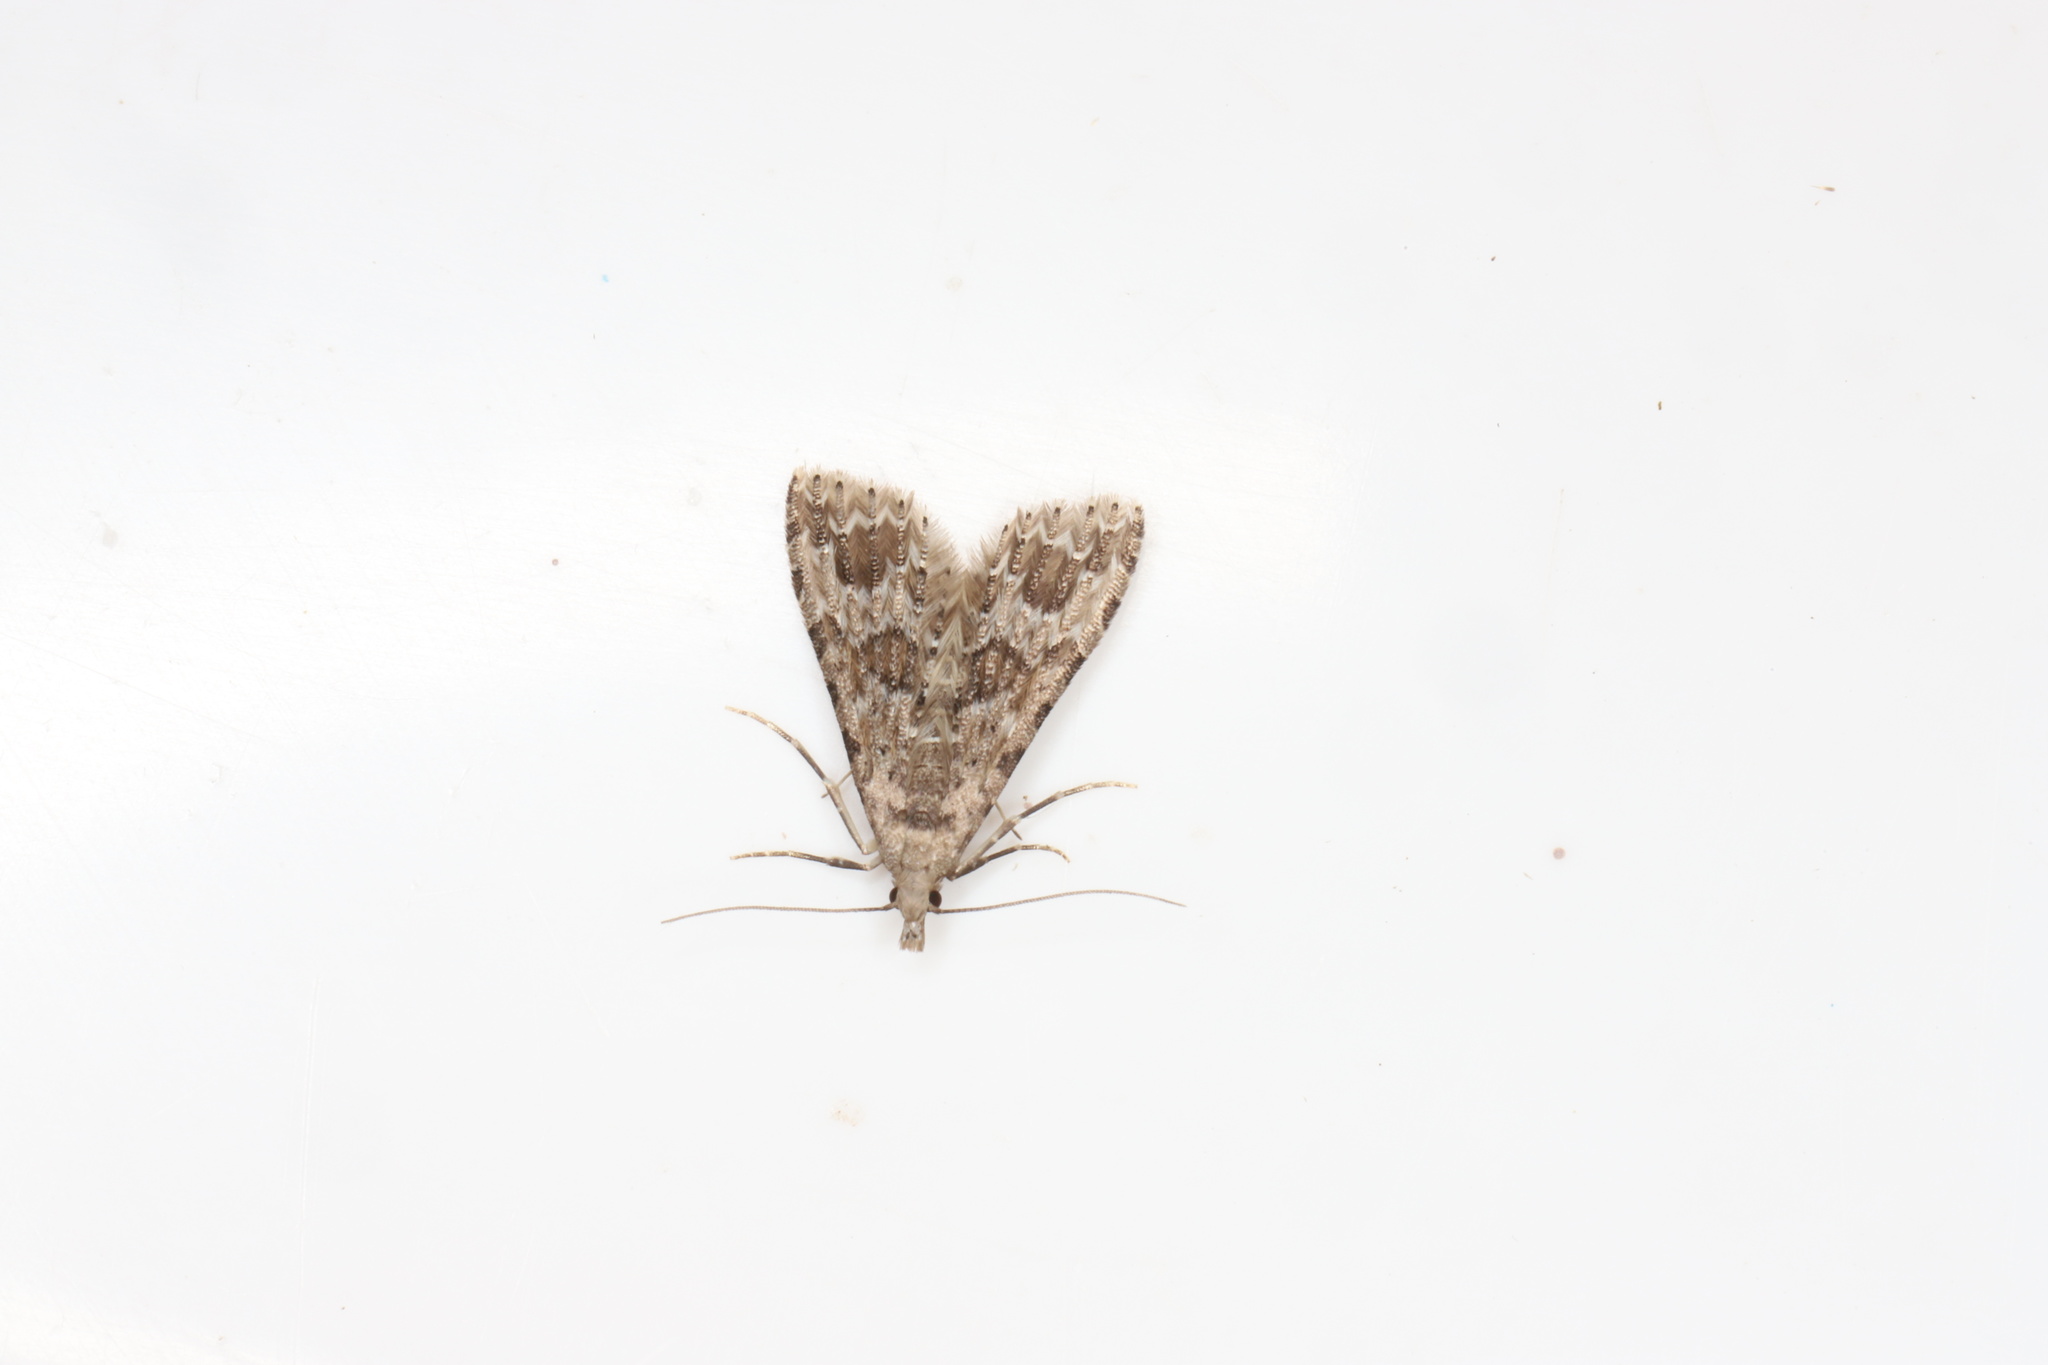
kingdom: Animalia
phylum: Arthropoda
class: Insecta
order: Lepidoptera
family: Alucitidae
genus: Alucita
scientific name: Alucita
